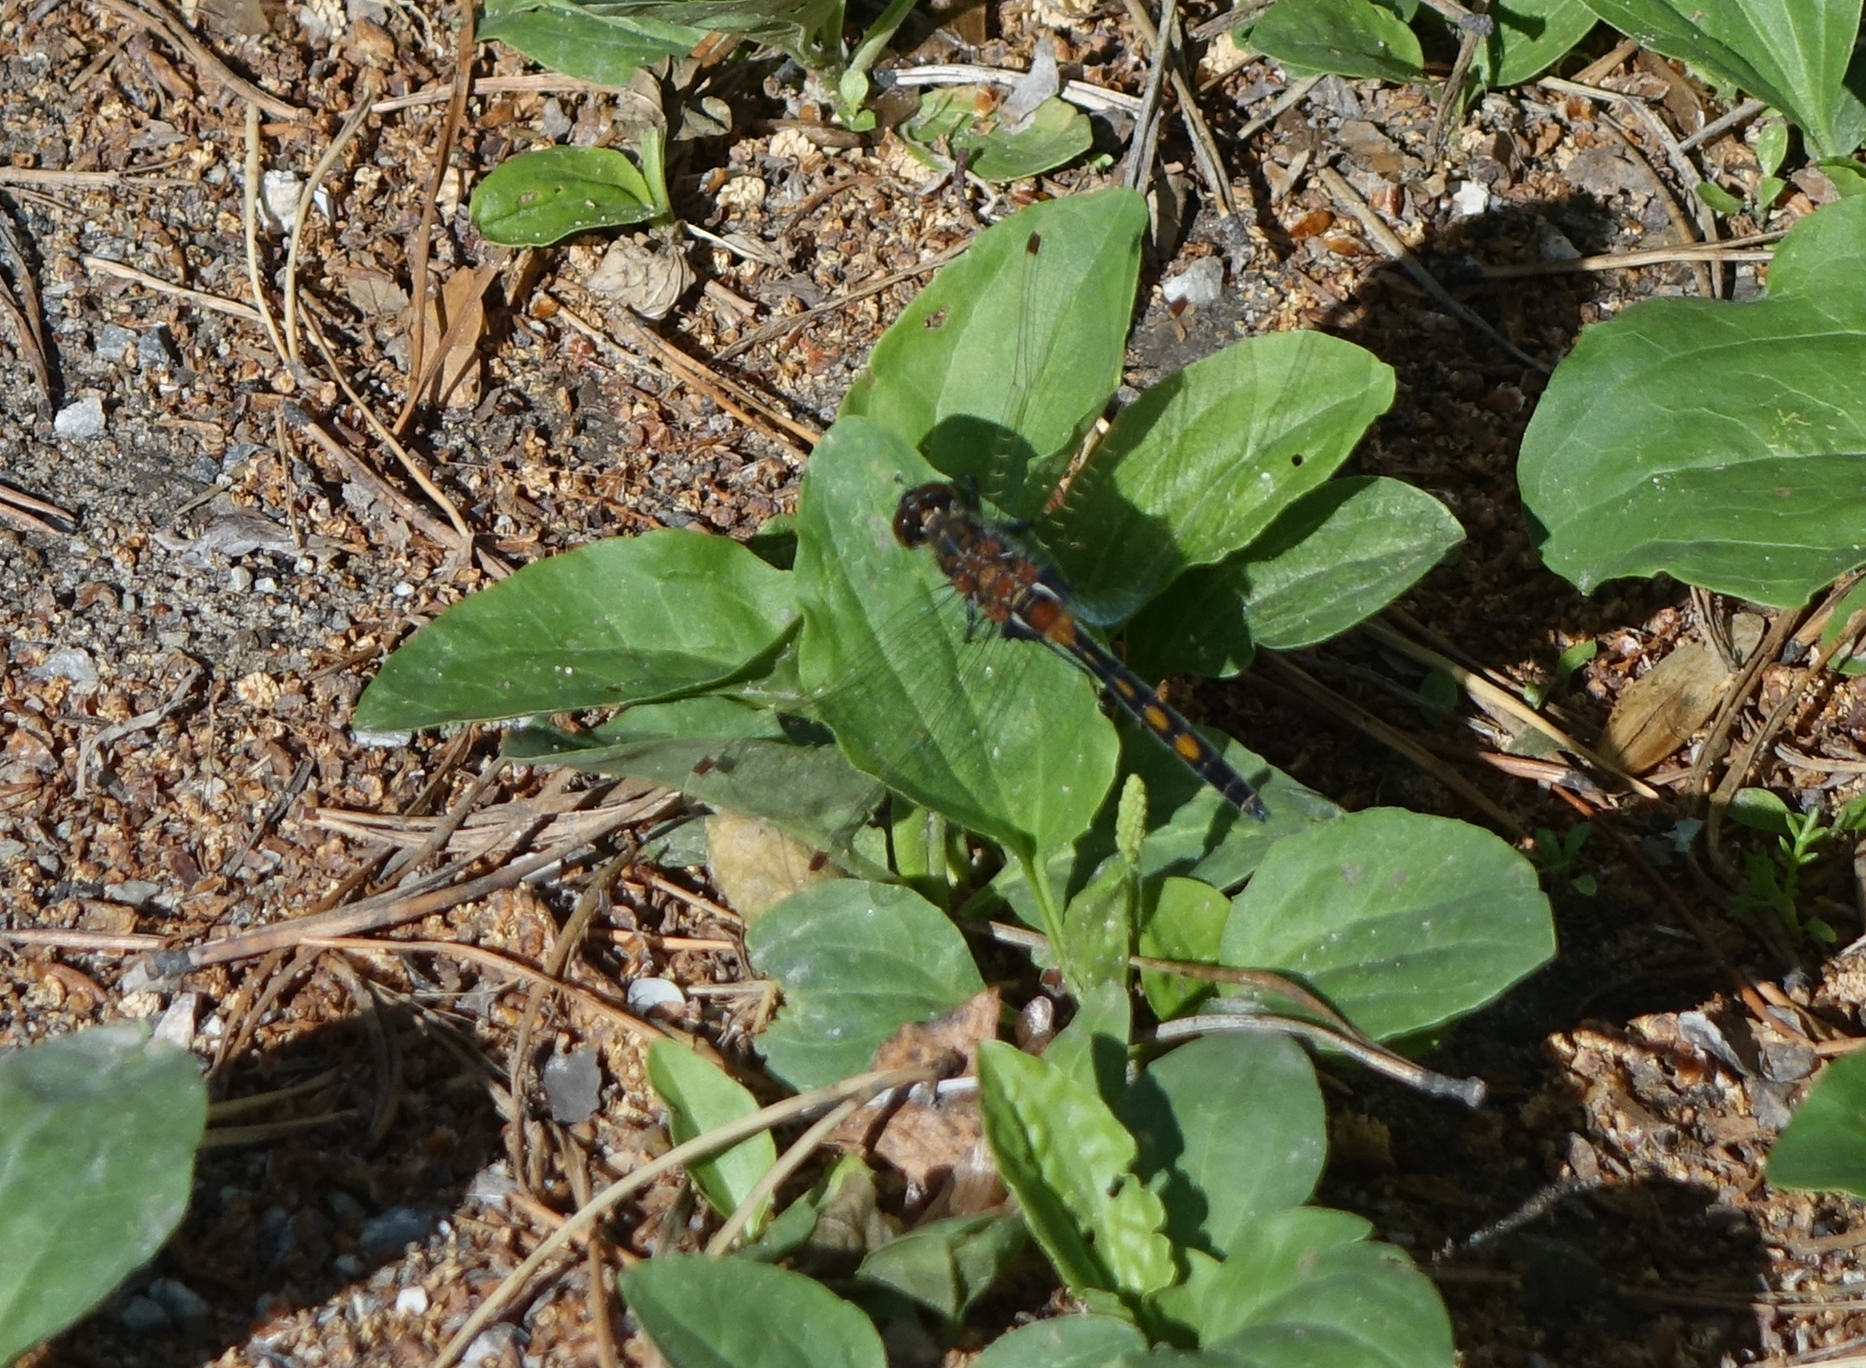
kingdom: Animalia
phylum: Arthropoda
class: Insecta
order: Odonata
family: Libellulidae
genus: Leucorrhinia
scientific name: Leucorrhinia rubicunda
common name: Ruby whiteface
